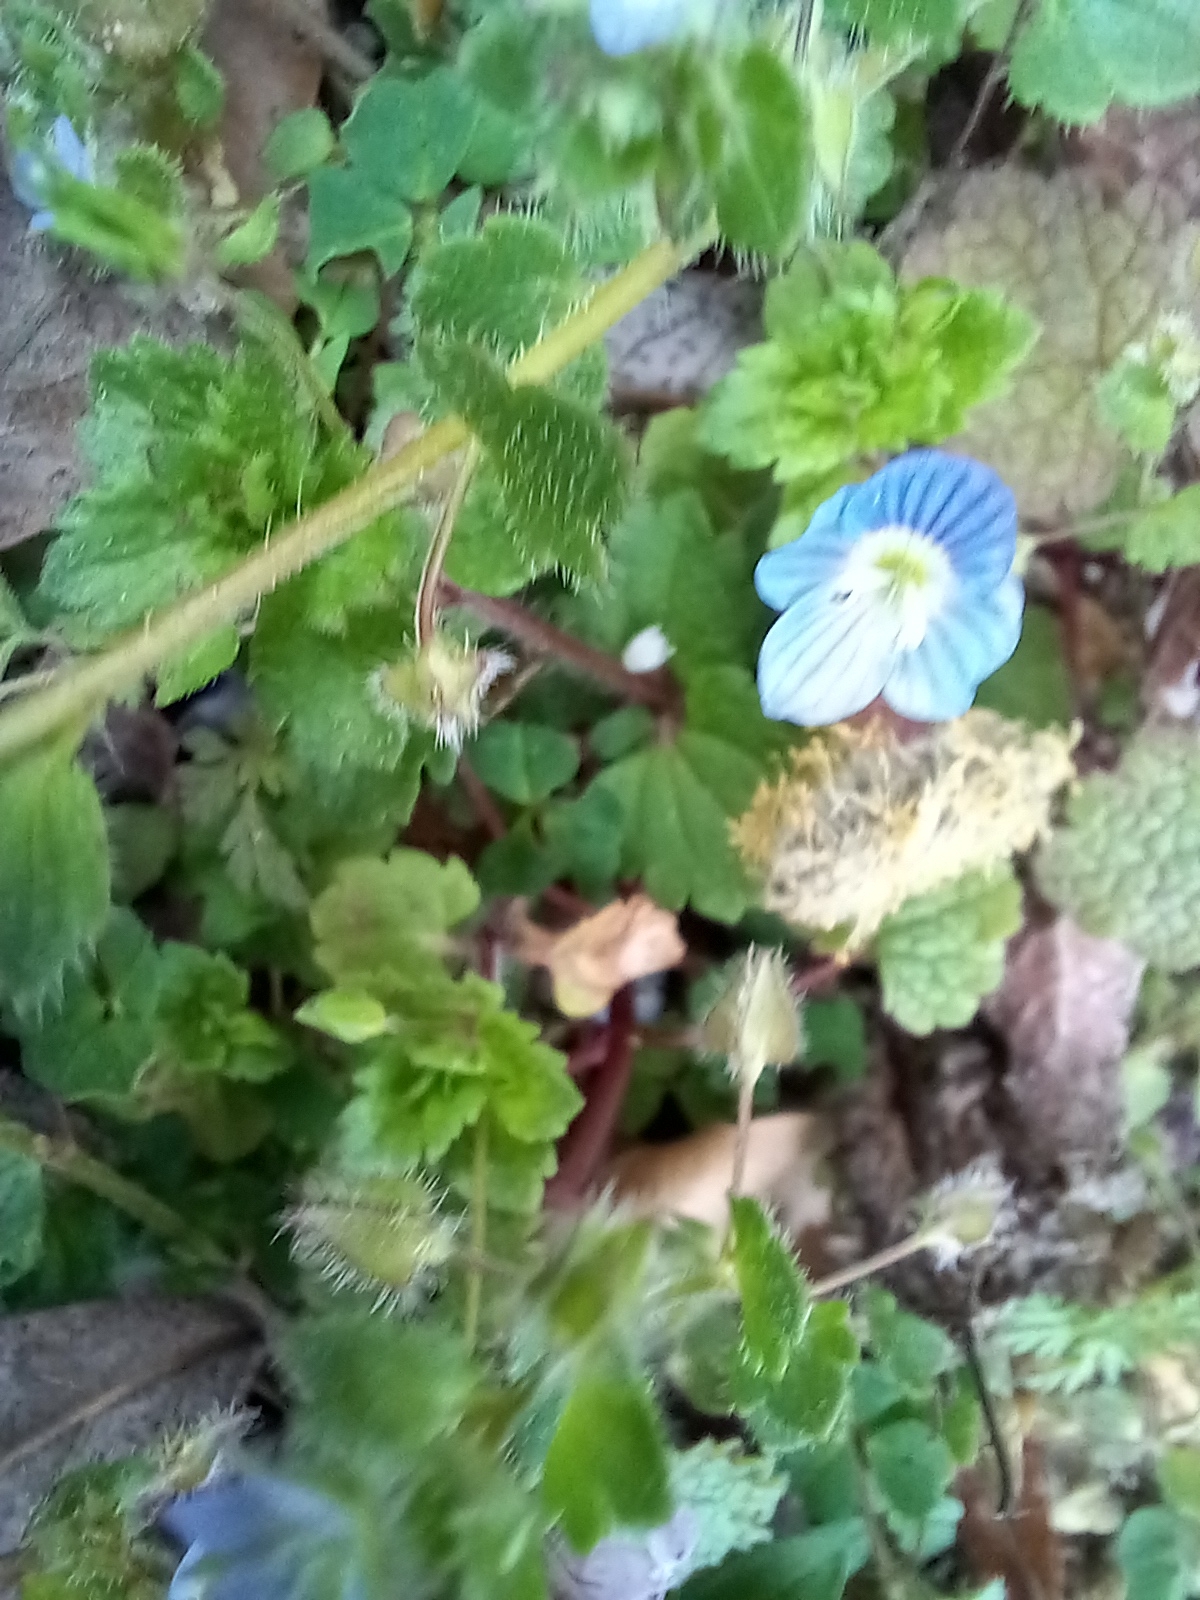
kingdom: Plantae
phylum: Tracheophyta
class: Magnoliopsida
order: Lamiales
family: Plantaginaceae
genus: Veronica
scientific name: Veronica persica
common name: Common field-speedwell
